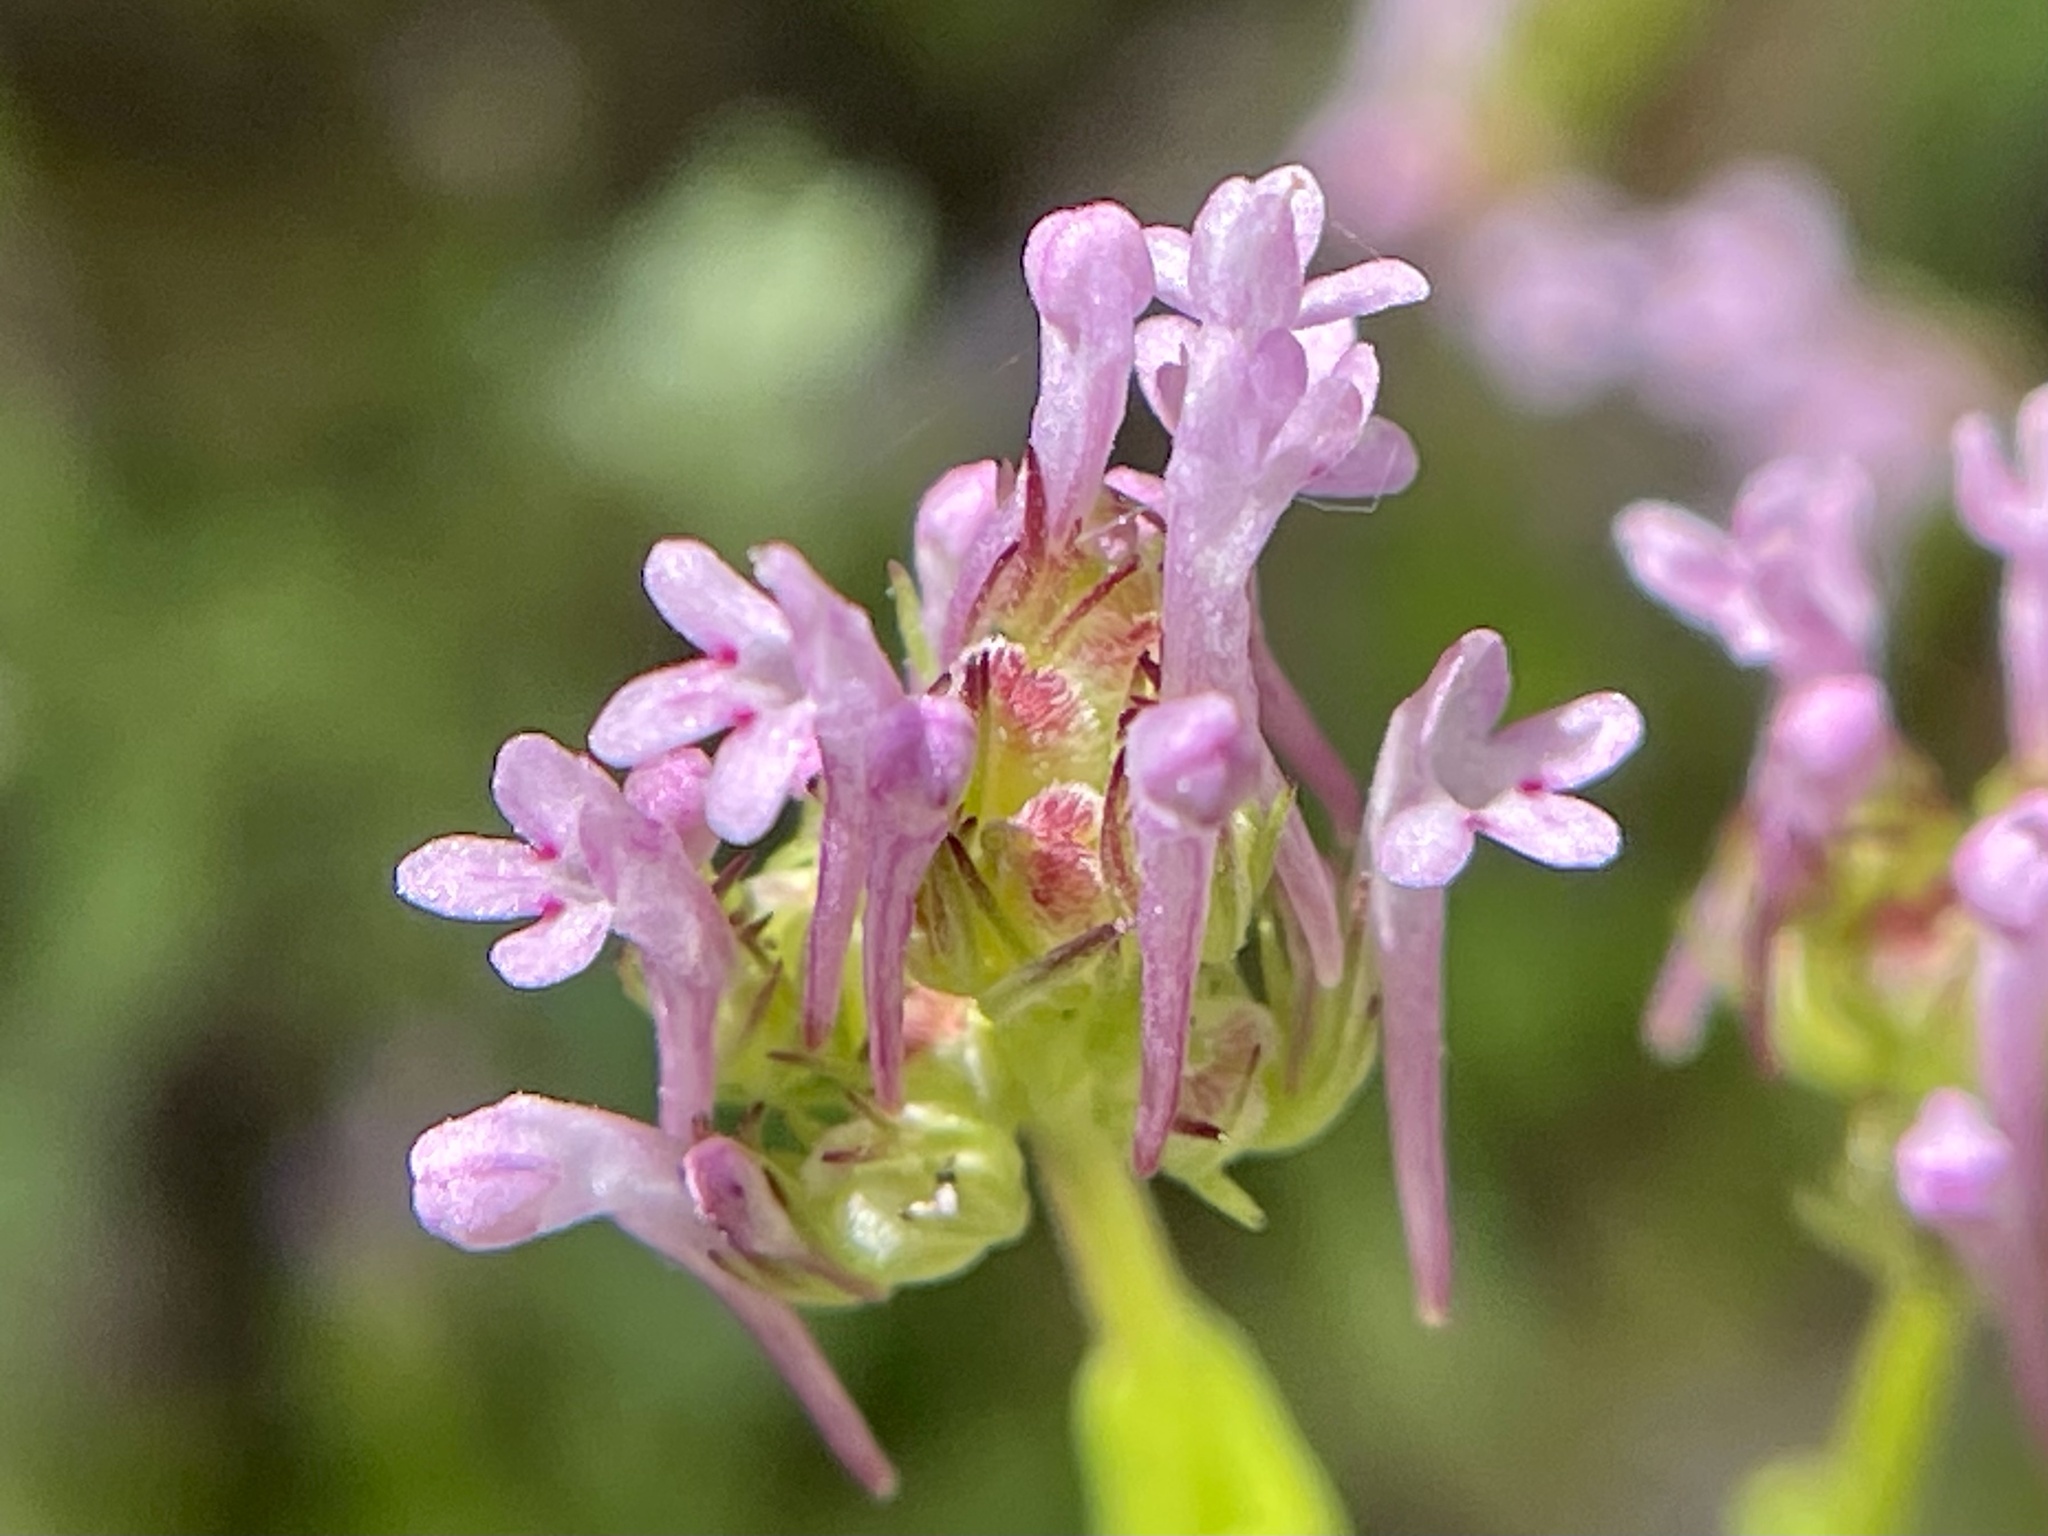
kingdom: Plantae
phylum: Tracheophyta
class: Magnoliopsida
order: Dipsacales
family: Caprifoliaceae
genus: Plectritis
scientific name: Plectritis ciliosa
